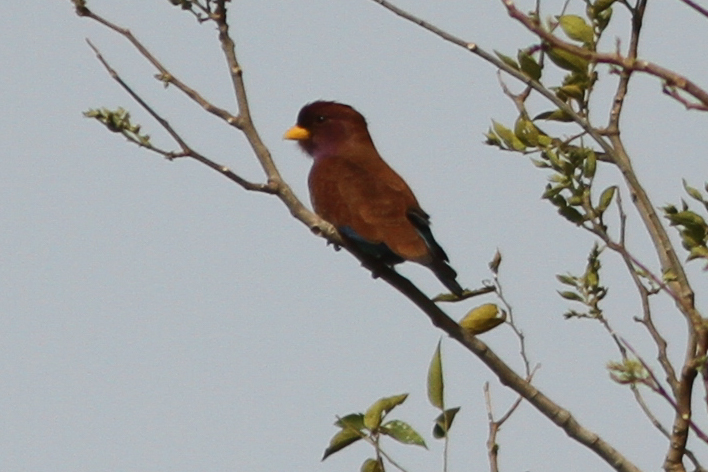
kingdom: Animalia
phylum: Chordata
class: Aves
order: Coraciiformes
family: Coraciidae
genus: Eurystomus
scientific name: Eurystomus glaucurus
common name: Broad-billed roller
